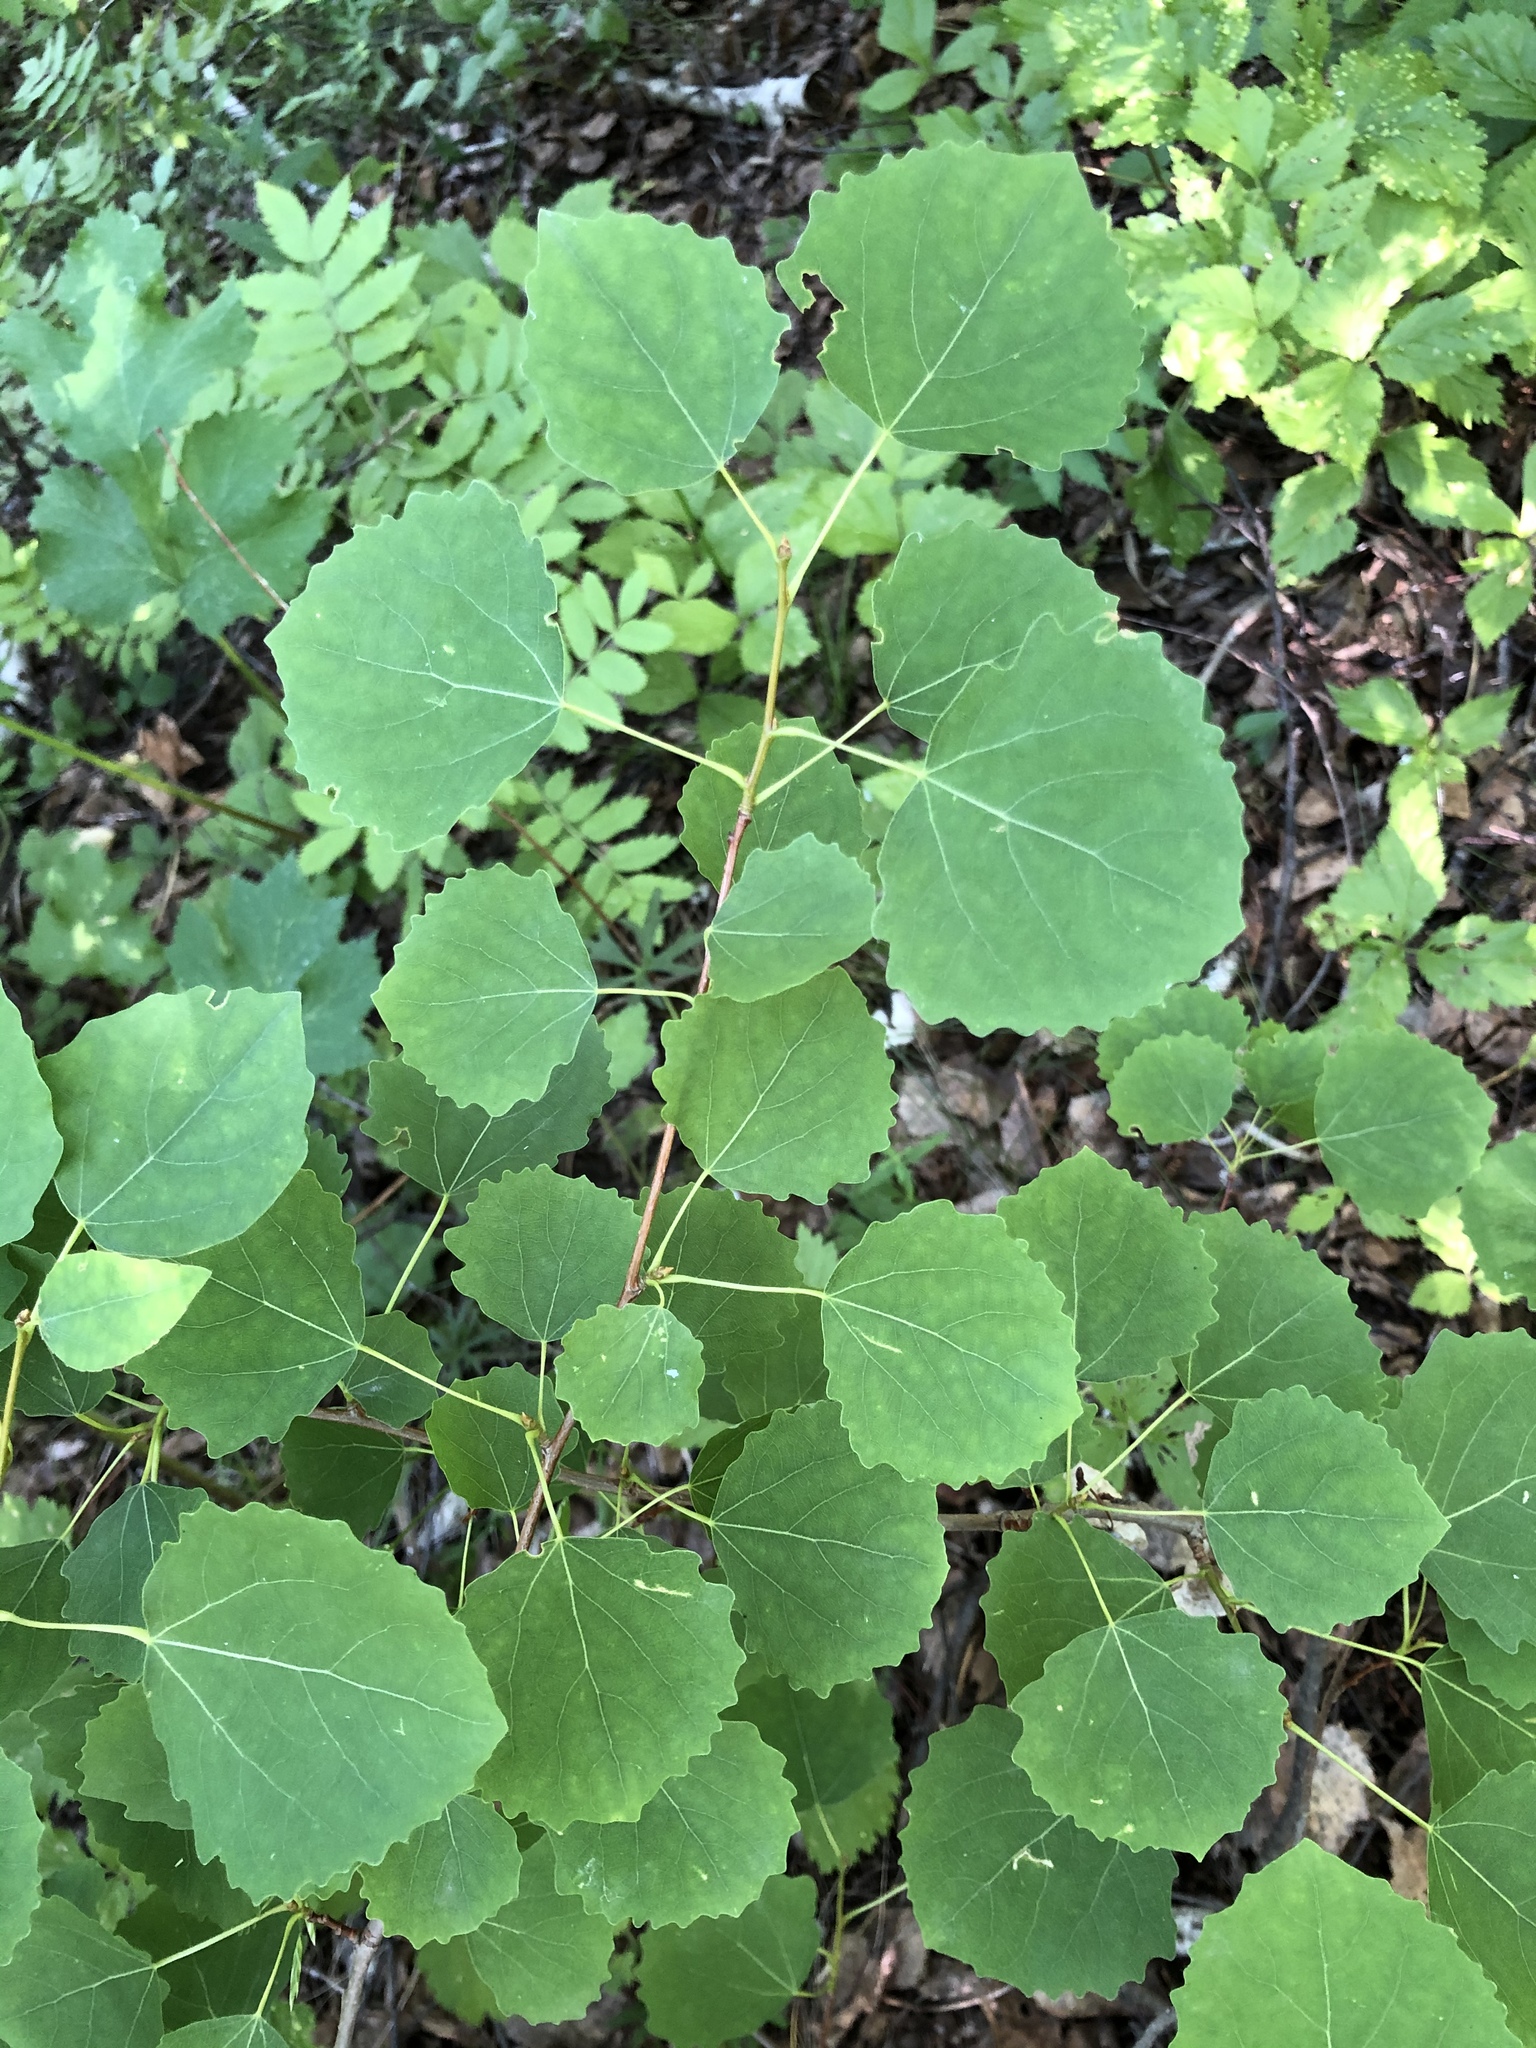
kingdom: Plantae
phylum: Tracheophyta
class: Magnoliopsida
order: Malpighiales
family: Salicaceae
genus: Populus
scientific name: Populus tremula
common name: European aspen
